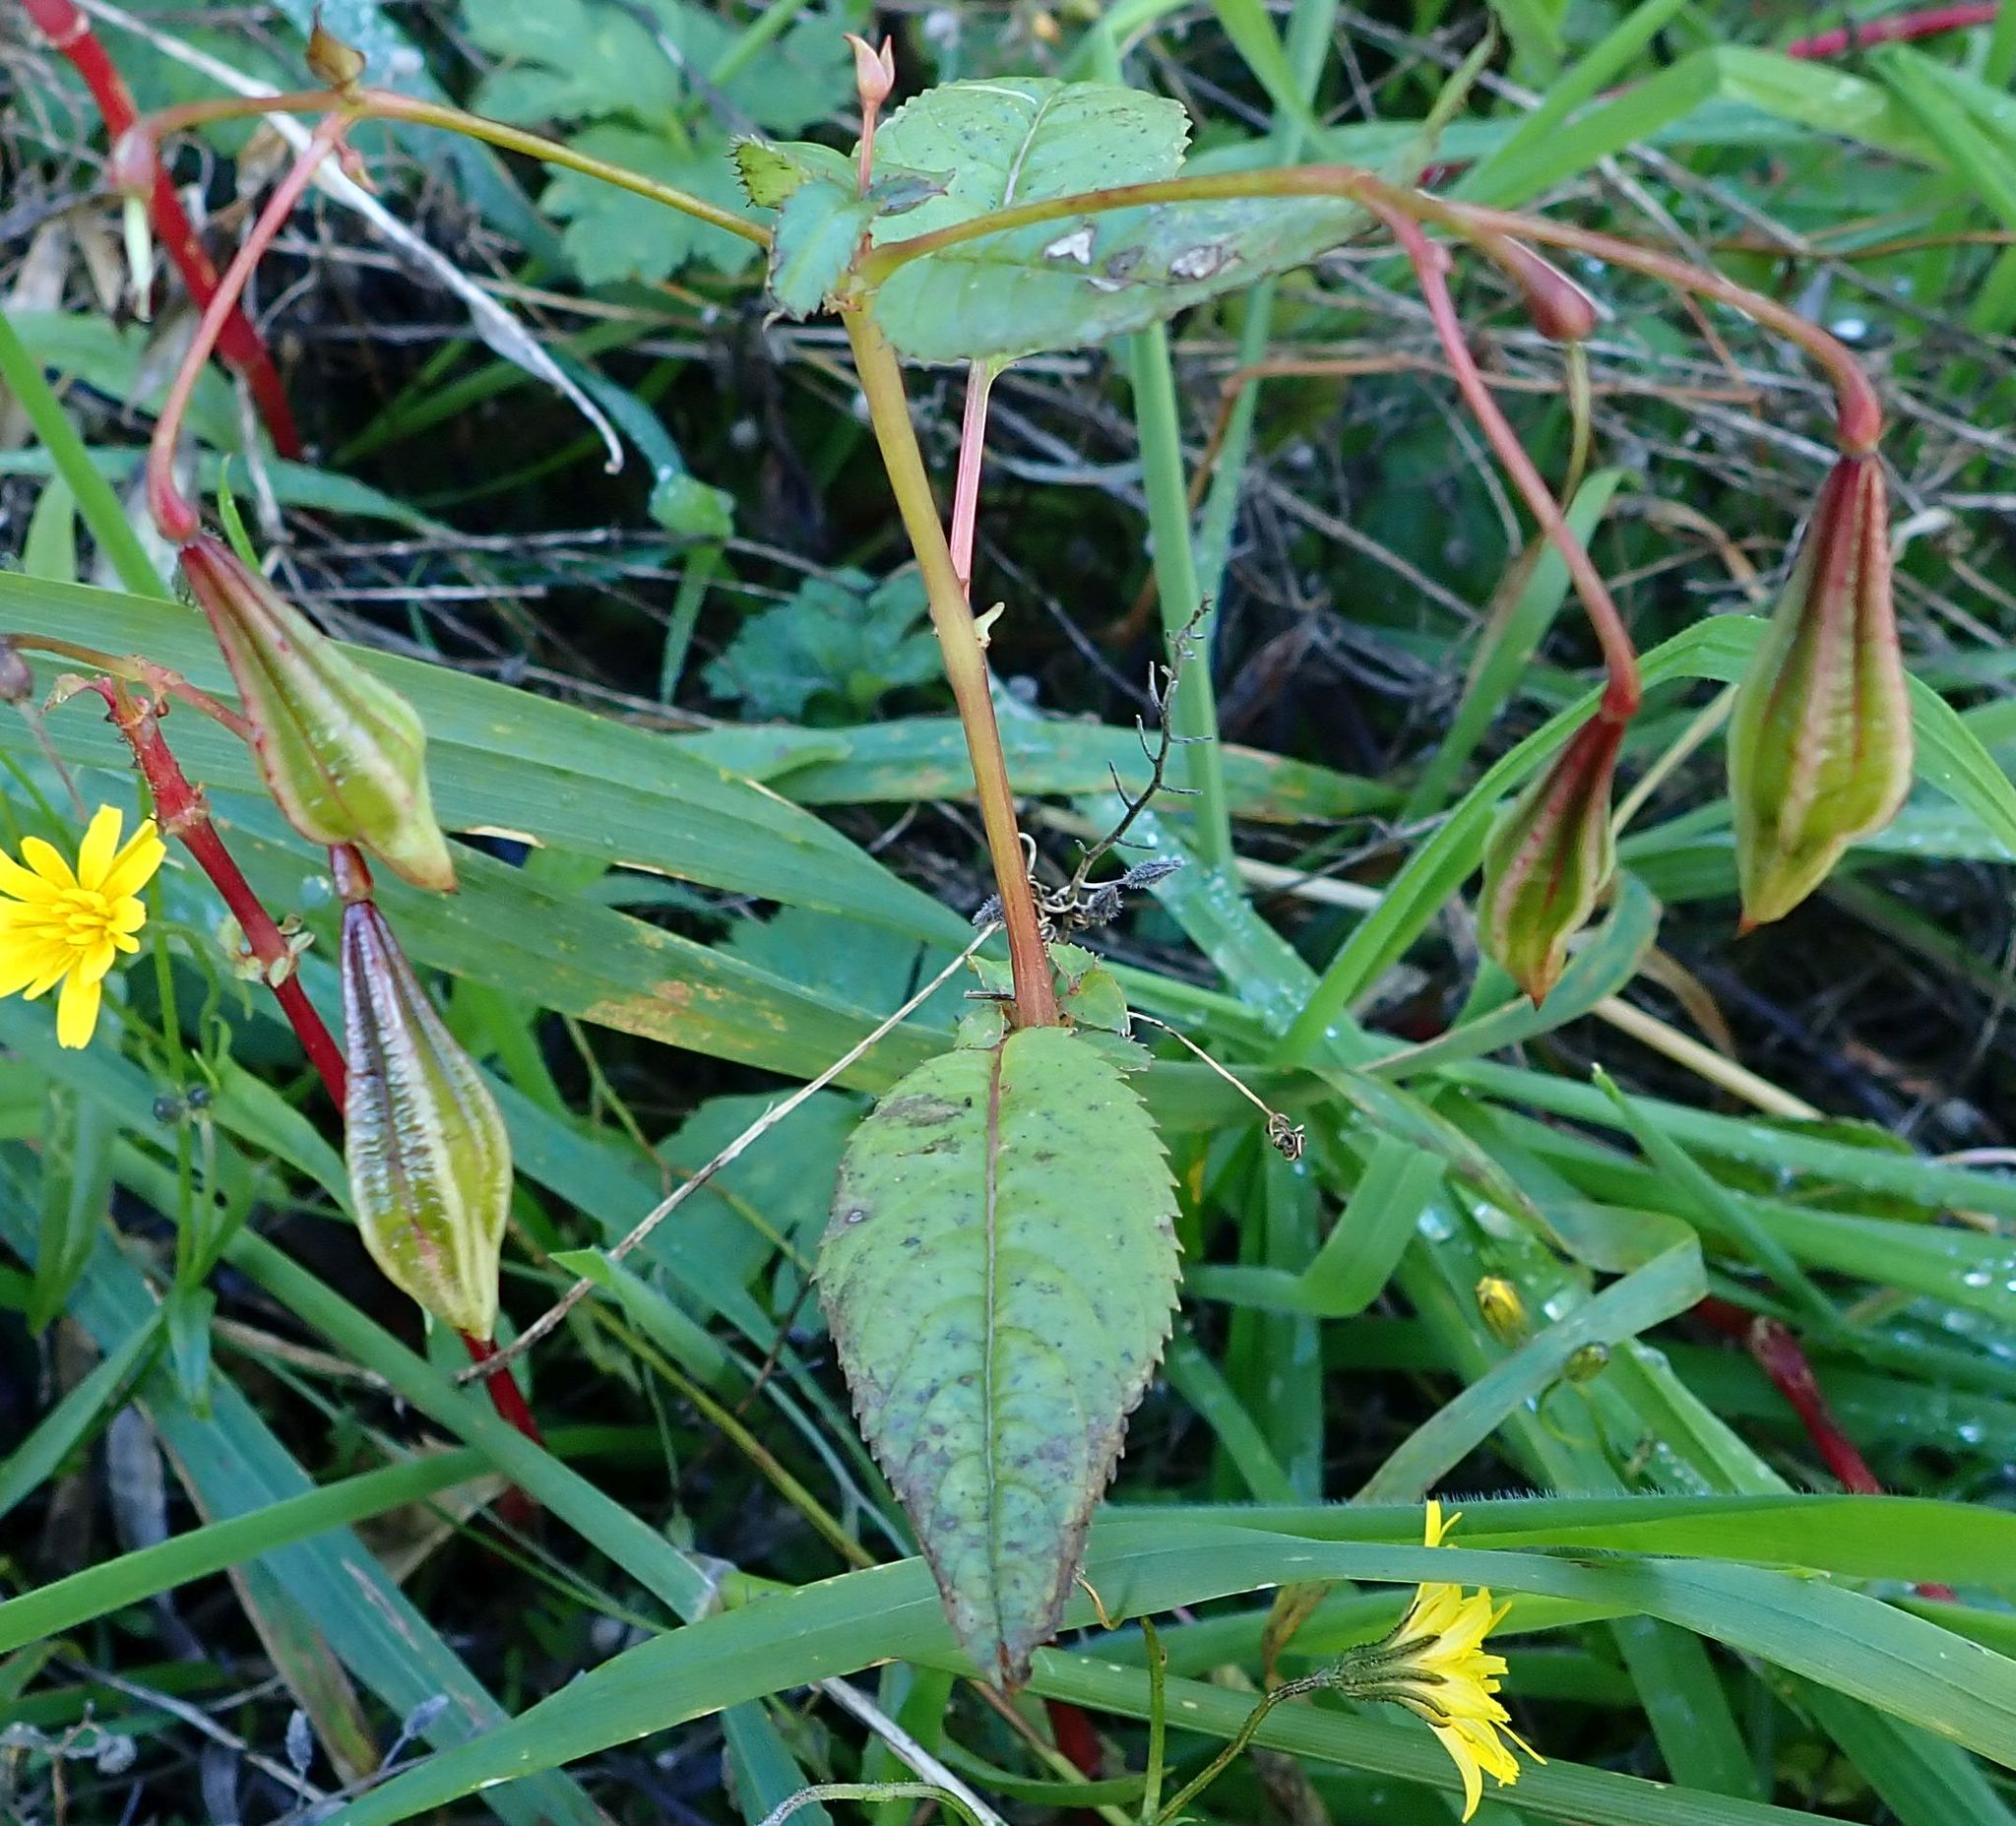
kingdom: Plantae
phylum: Tracheophyta
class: Magnoliopsida
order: Ericales
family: Balsaminaceae
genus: Impatiens
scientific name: Impatiens glandulifera
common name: Himalayan balsam
